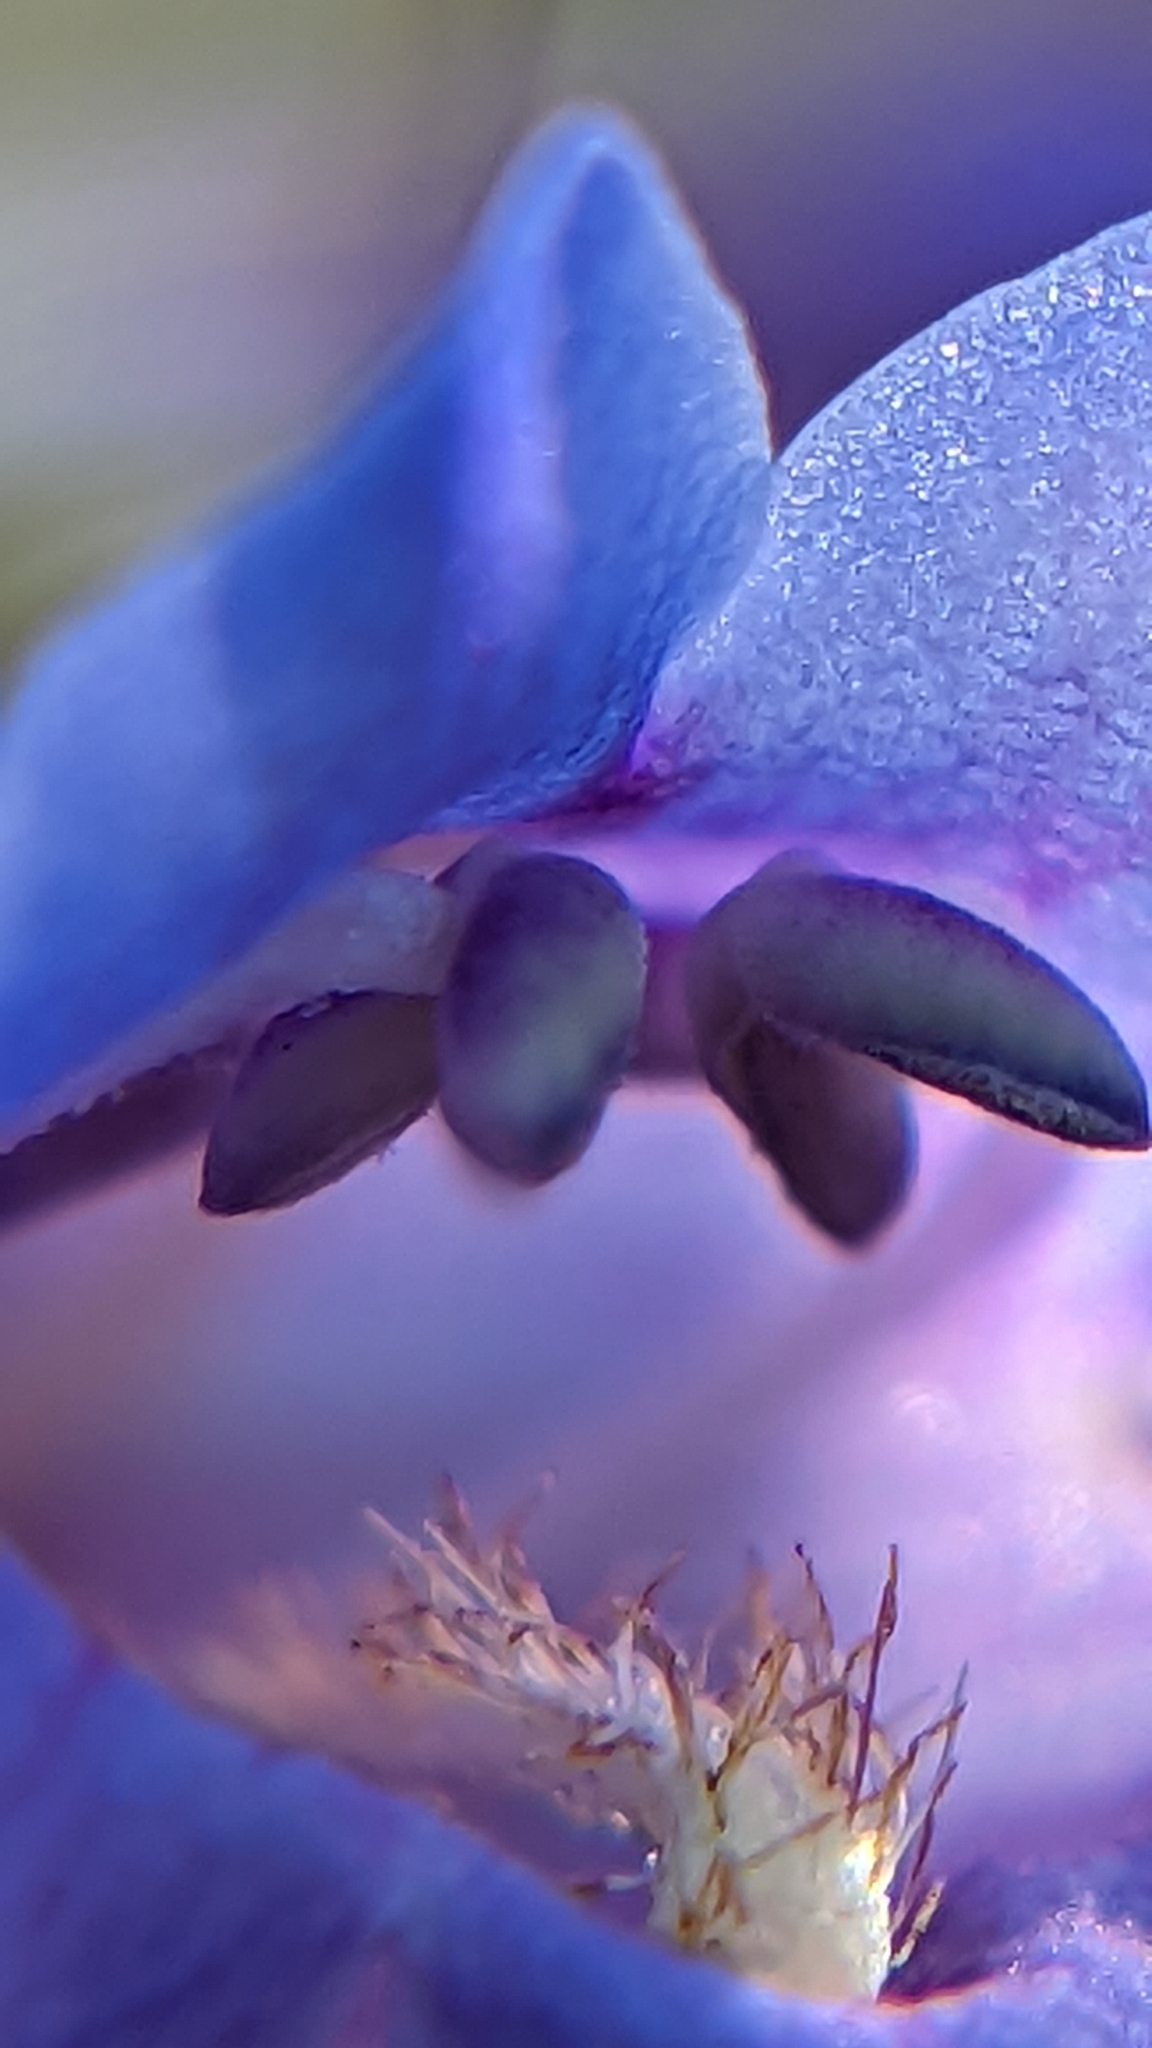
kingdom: Plantae
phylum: Tracheophyta
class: Magnoliopsida
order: Lamiales
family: Plantaginaceae
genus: Penstemon
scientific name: Penstemon pachyphyllus
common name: Thick-leaf penstemon
